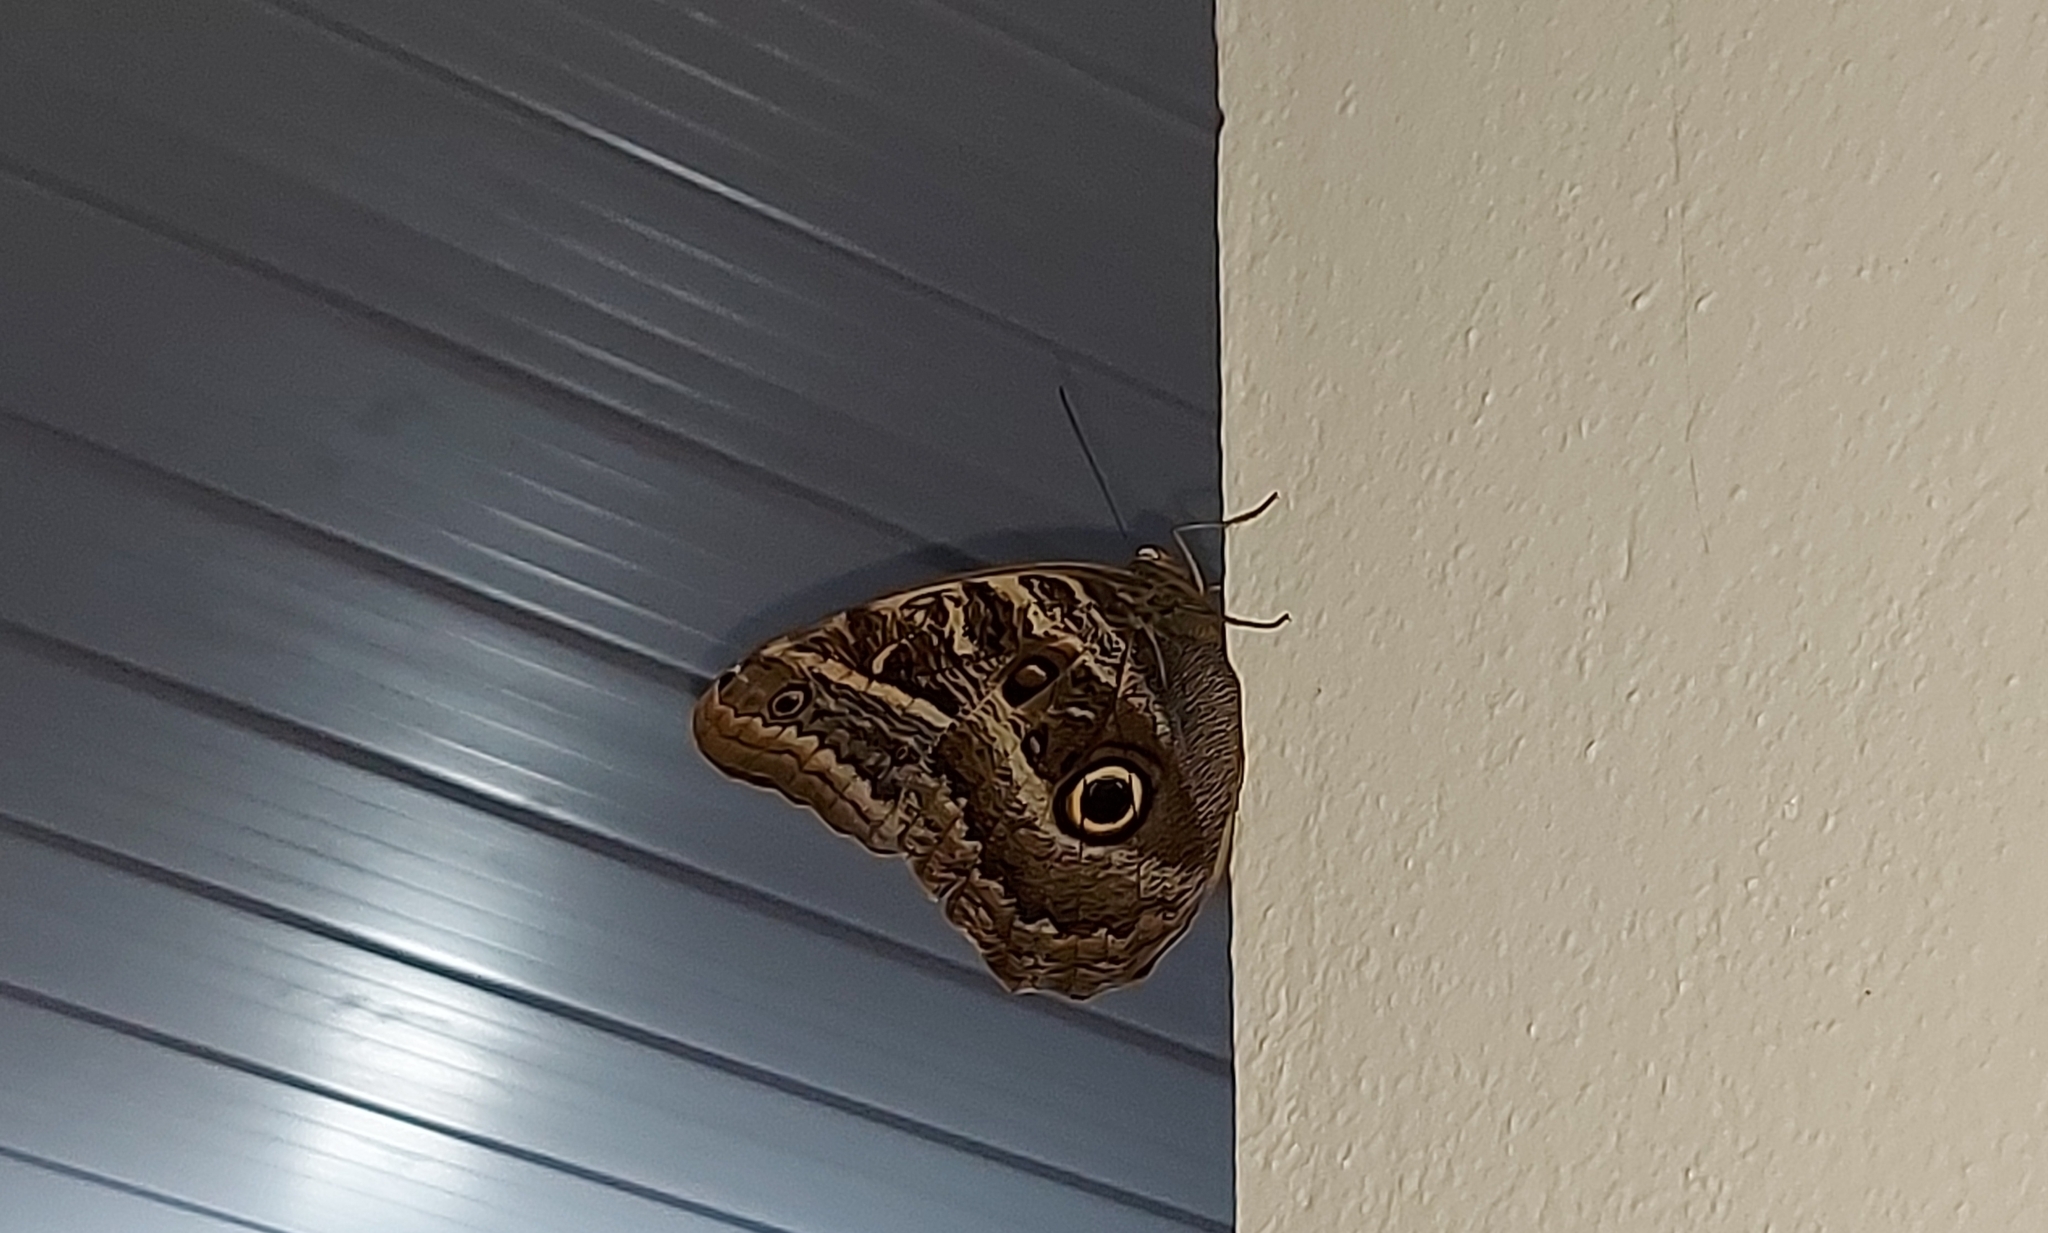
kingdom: Animalia
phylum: Arthropoda
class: Insecta
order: Lepidoptera
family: Nymphalidae
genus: Caligo
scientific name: Caligo illioneus
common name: Dusky owl-butterfly
